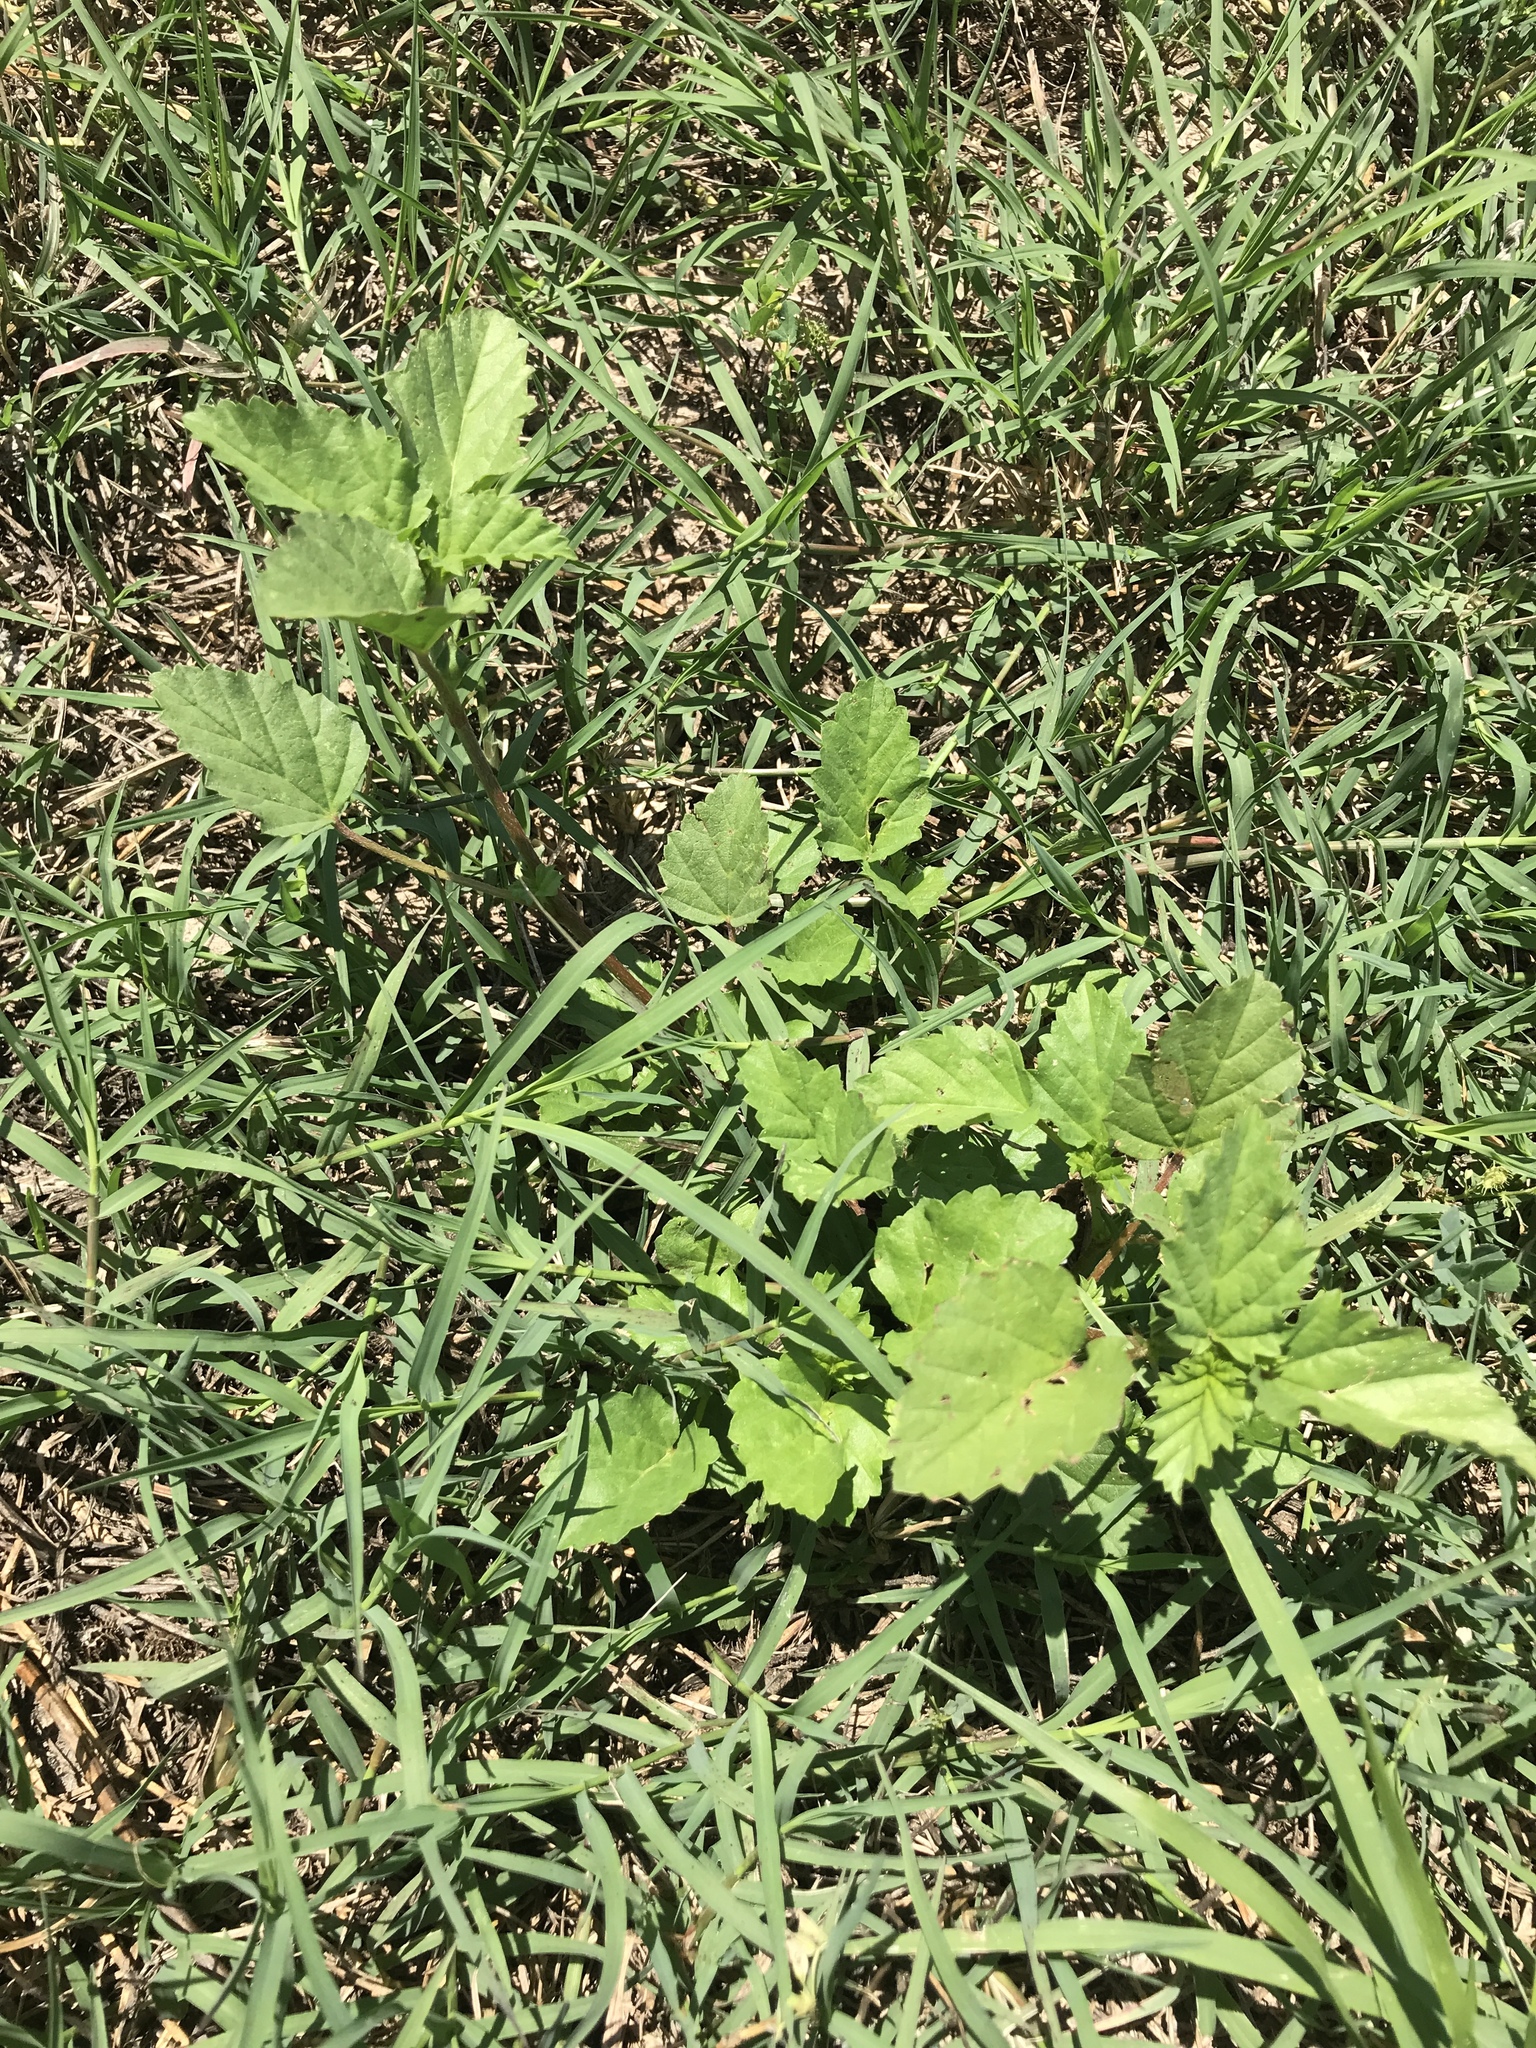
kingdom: Plantae
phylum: Tracheophyta
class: Magnoliopsida
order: Malvales
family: Malvaceae
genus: Malvastrum
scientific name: Malvastrum coromandelianum
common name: Threelobe false mallow
